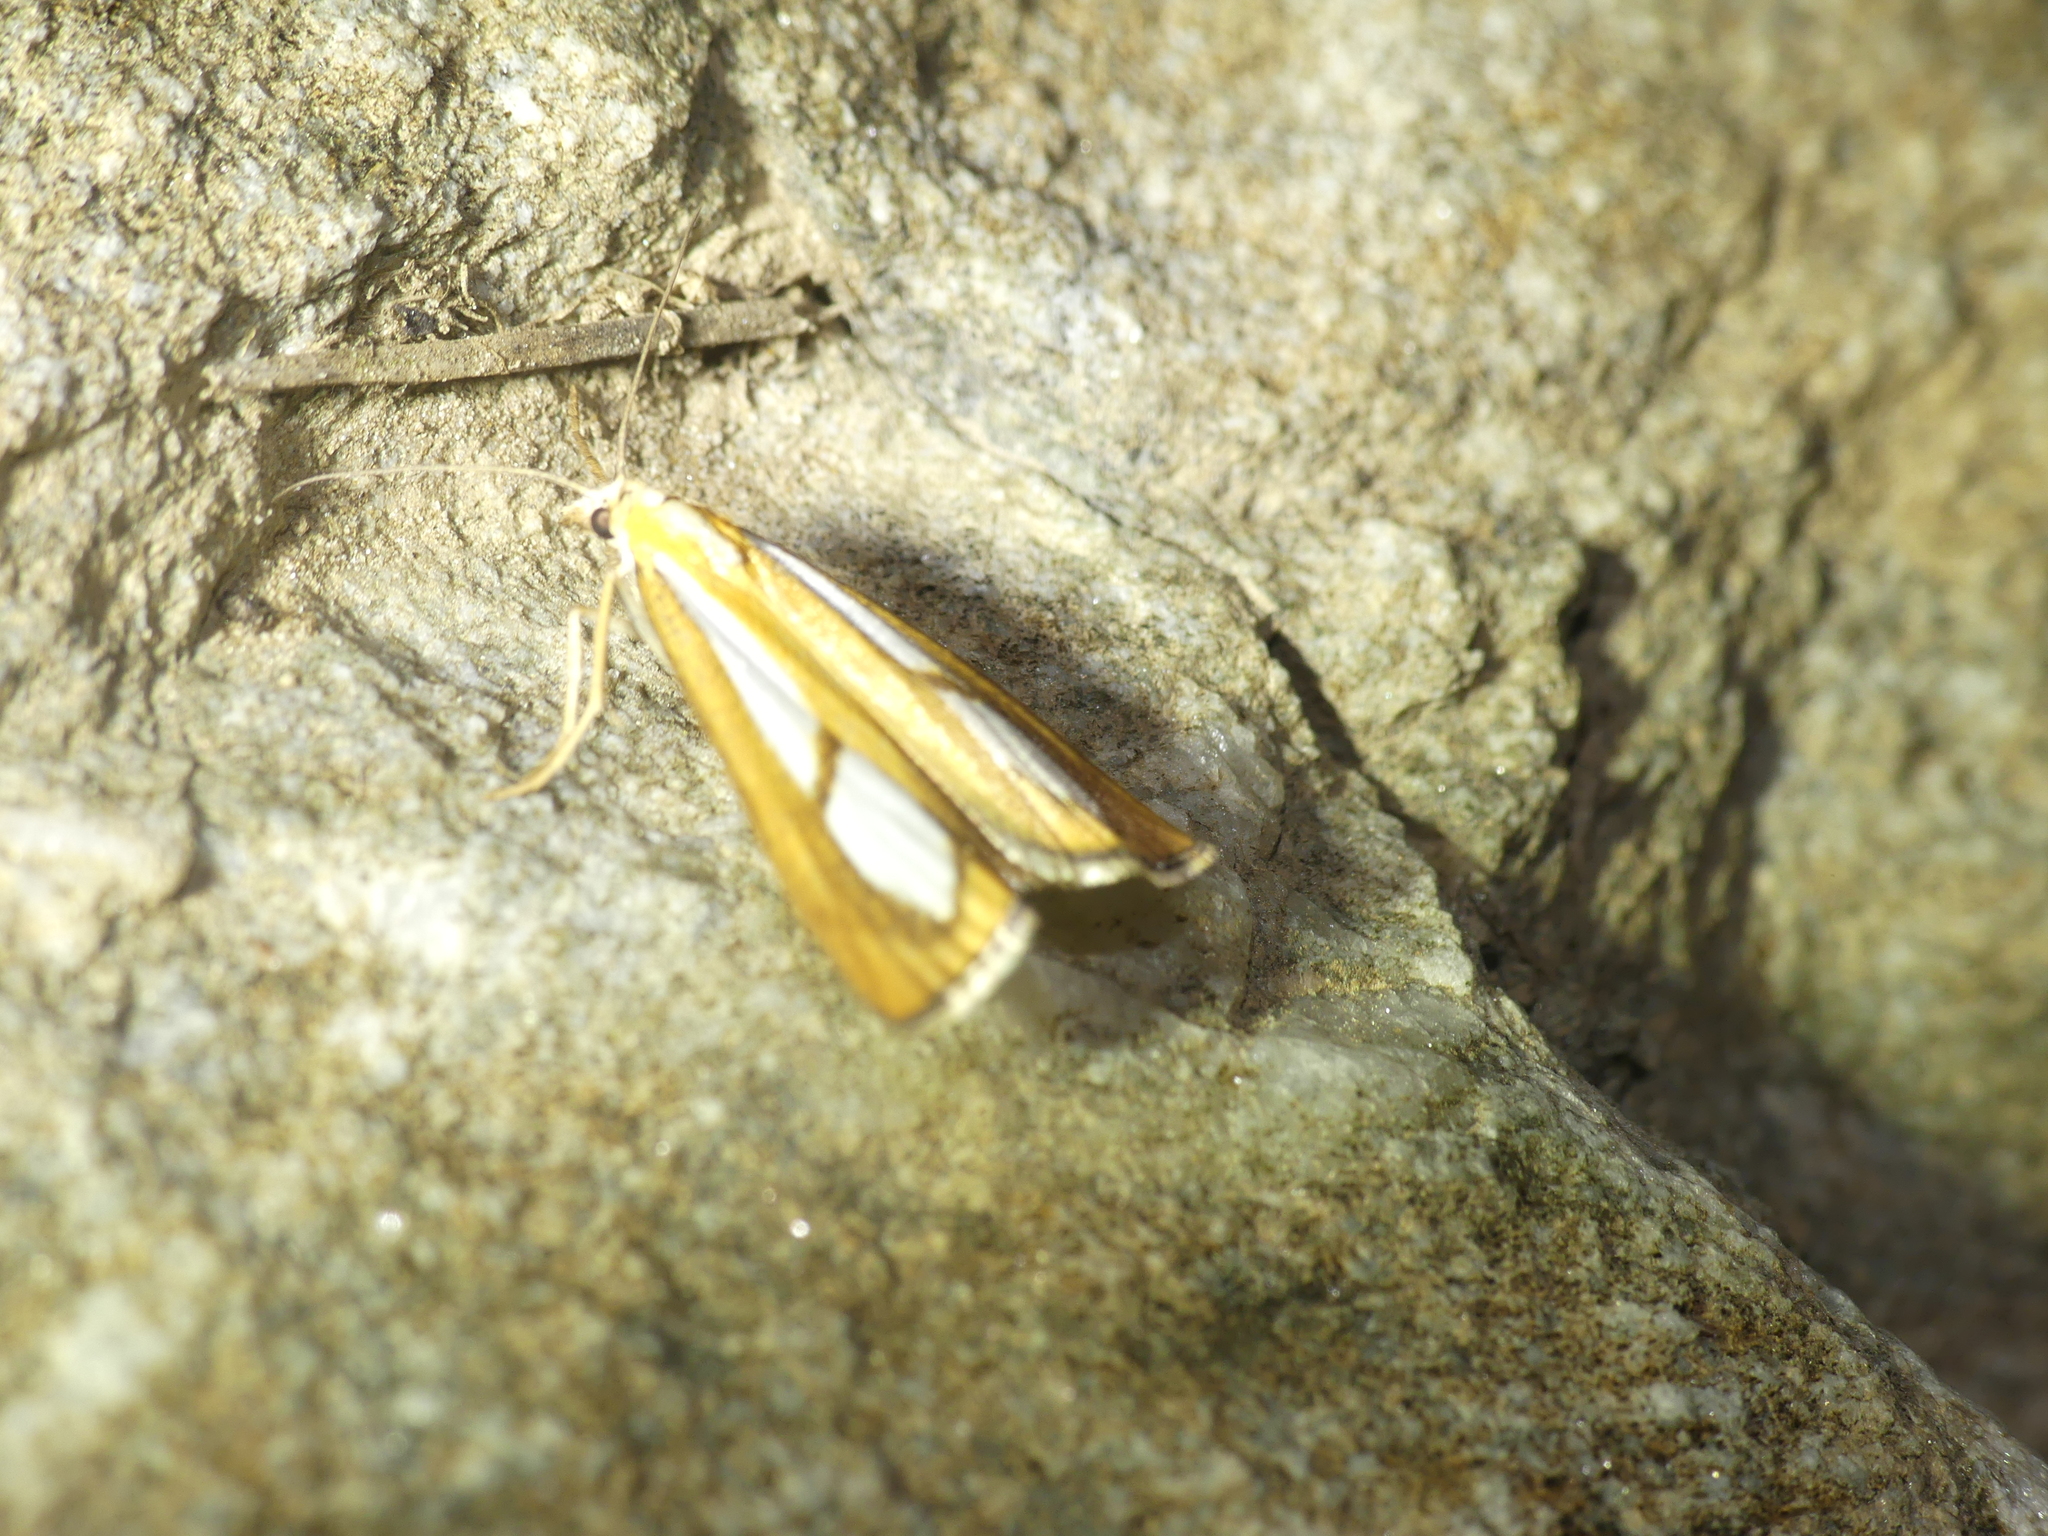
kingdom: Animalia
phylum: Arthropoda
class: Insecta
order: Lepidoptera
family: Crambidae
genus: Catoptria
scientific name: Catoptria conchella
